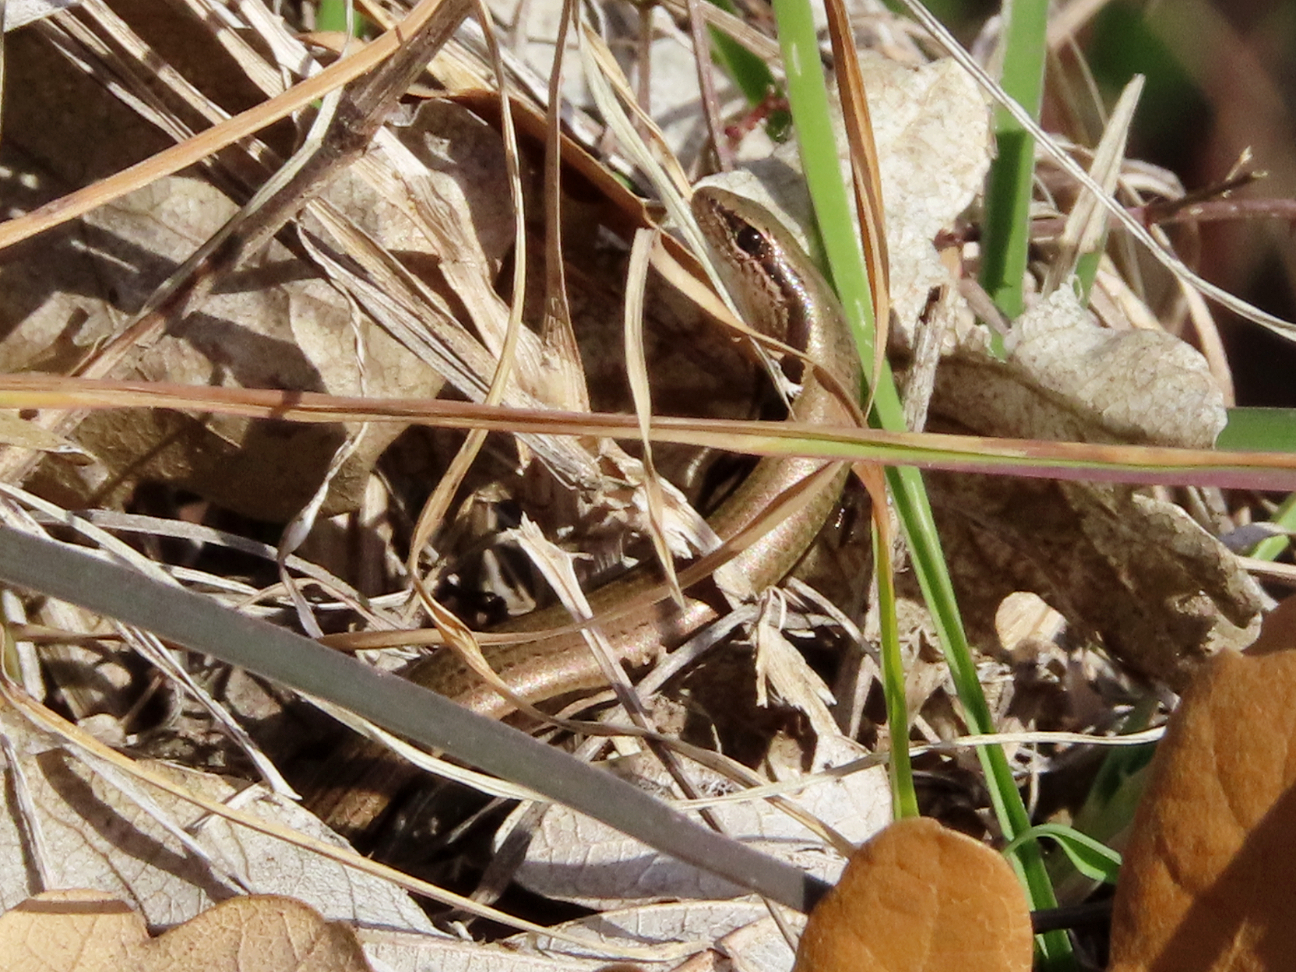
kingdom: Animalia
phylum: Chordata
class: Squamata
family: Scincidae
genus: Ablepharus
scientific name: Ablepharus kitaibelii
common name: Juniper skink
